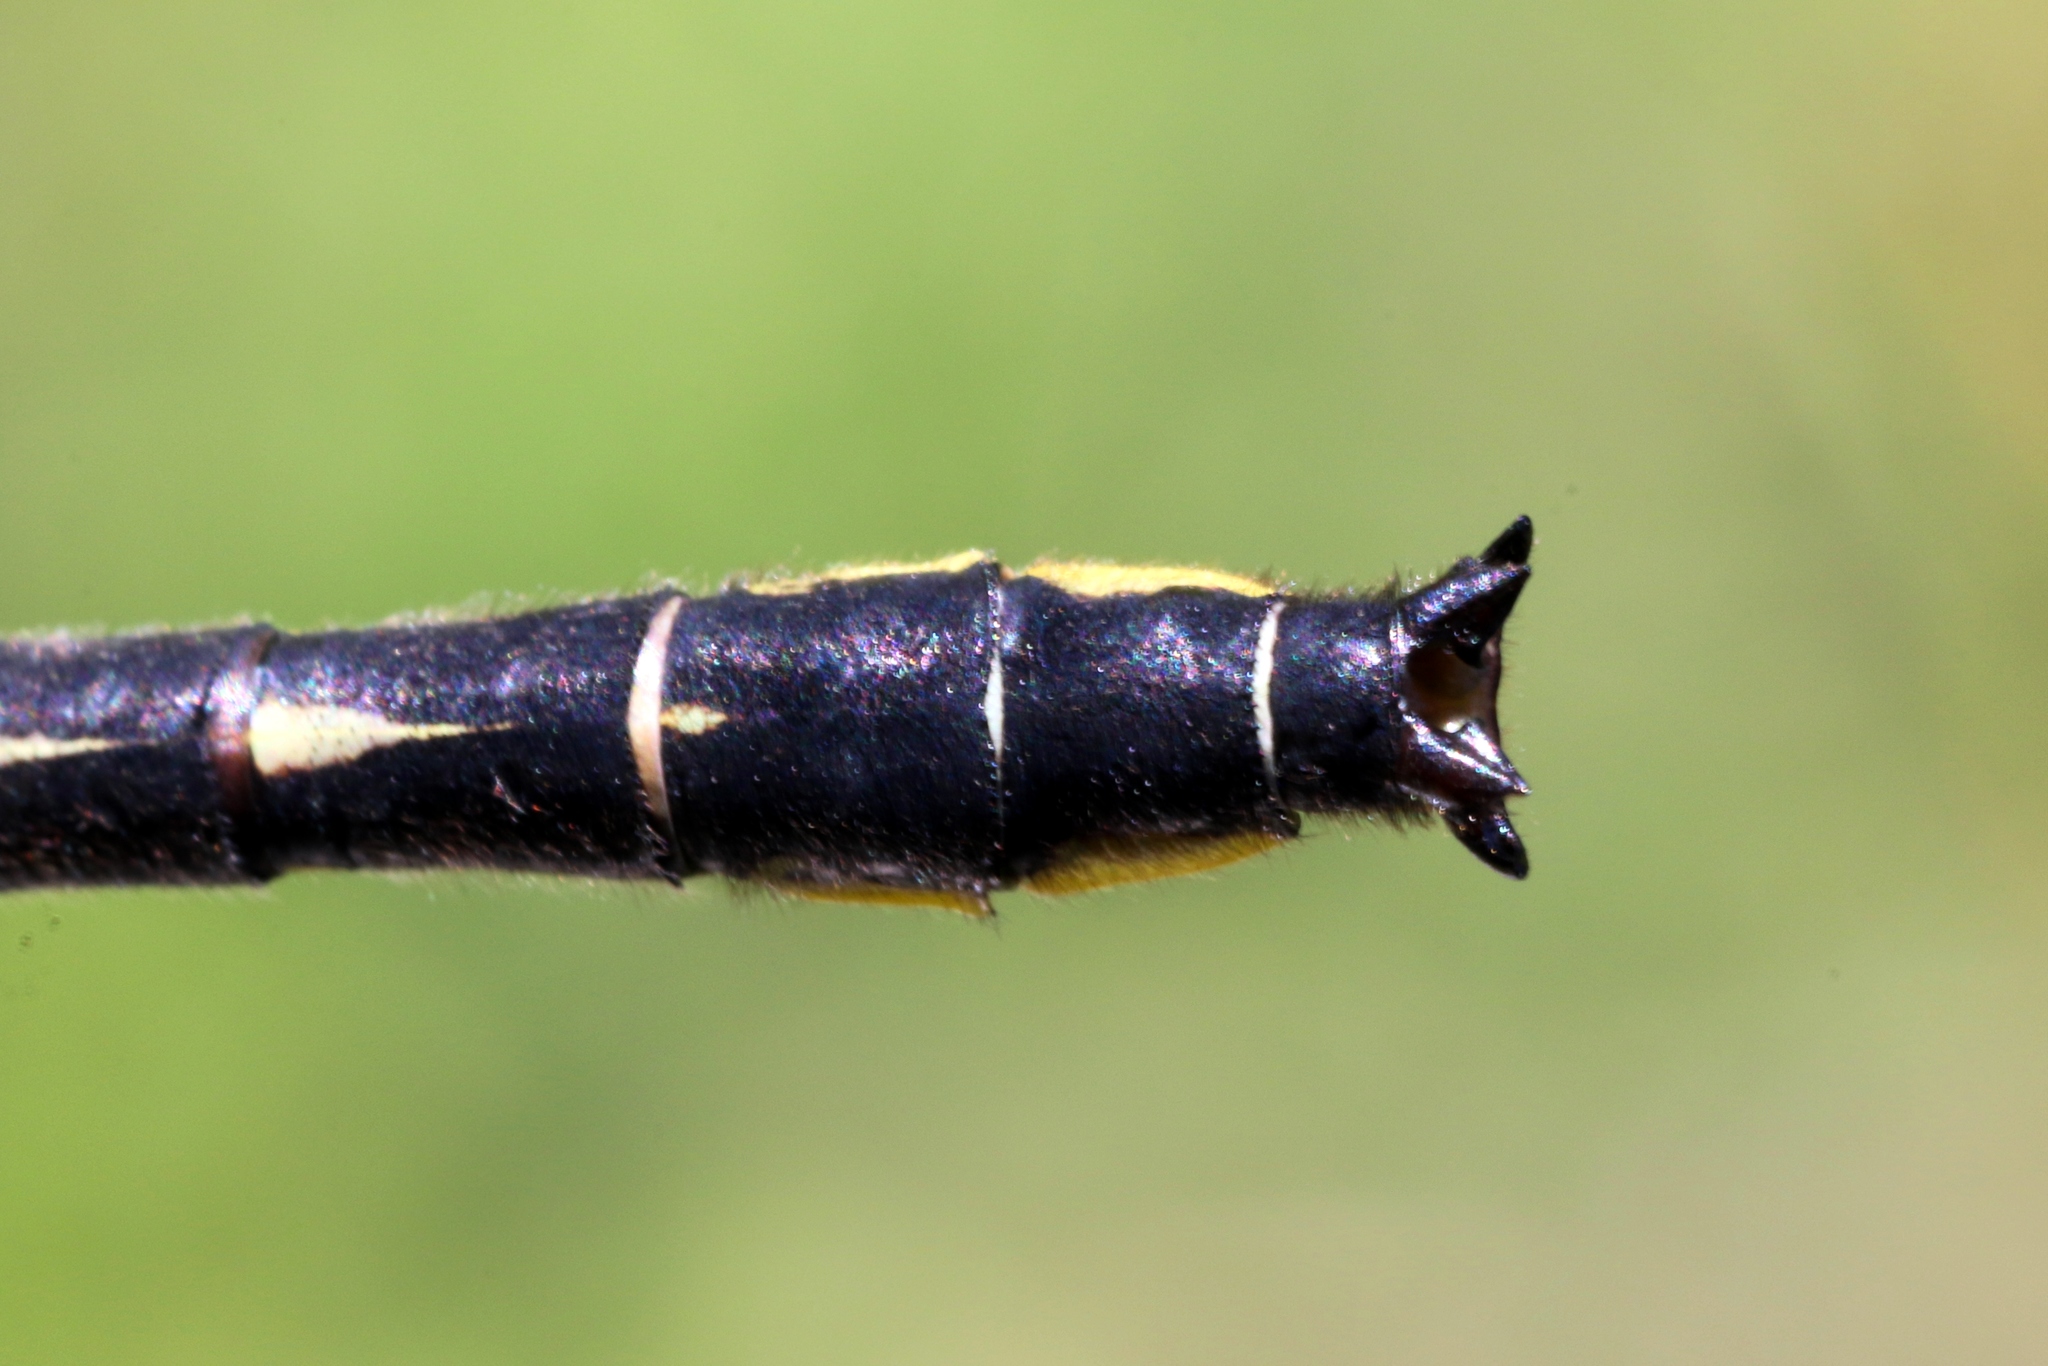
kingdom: Animalia
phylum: Arthropoda
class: Insecta
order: Odonata
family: Gomphidae
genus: Phanogomphus
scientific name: Phanogomphus borealis
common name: Beaverpond clubtail
